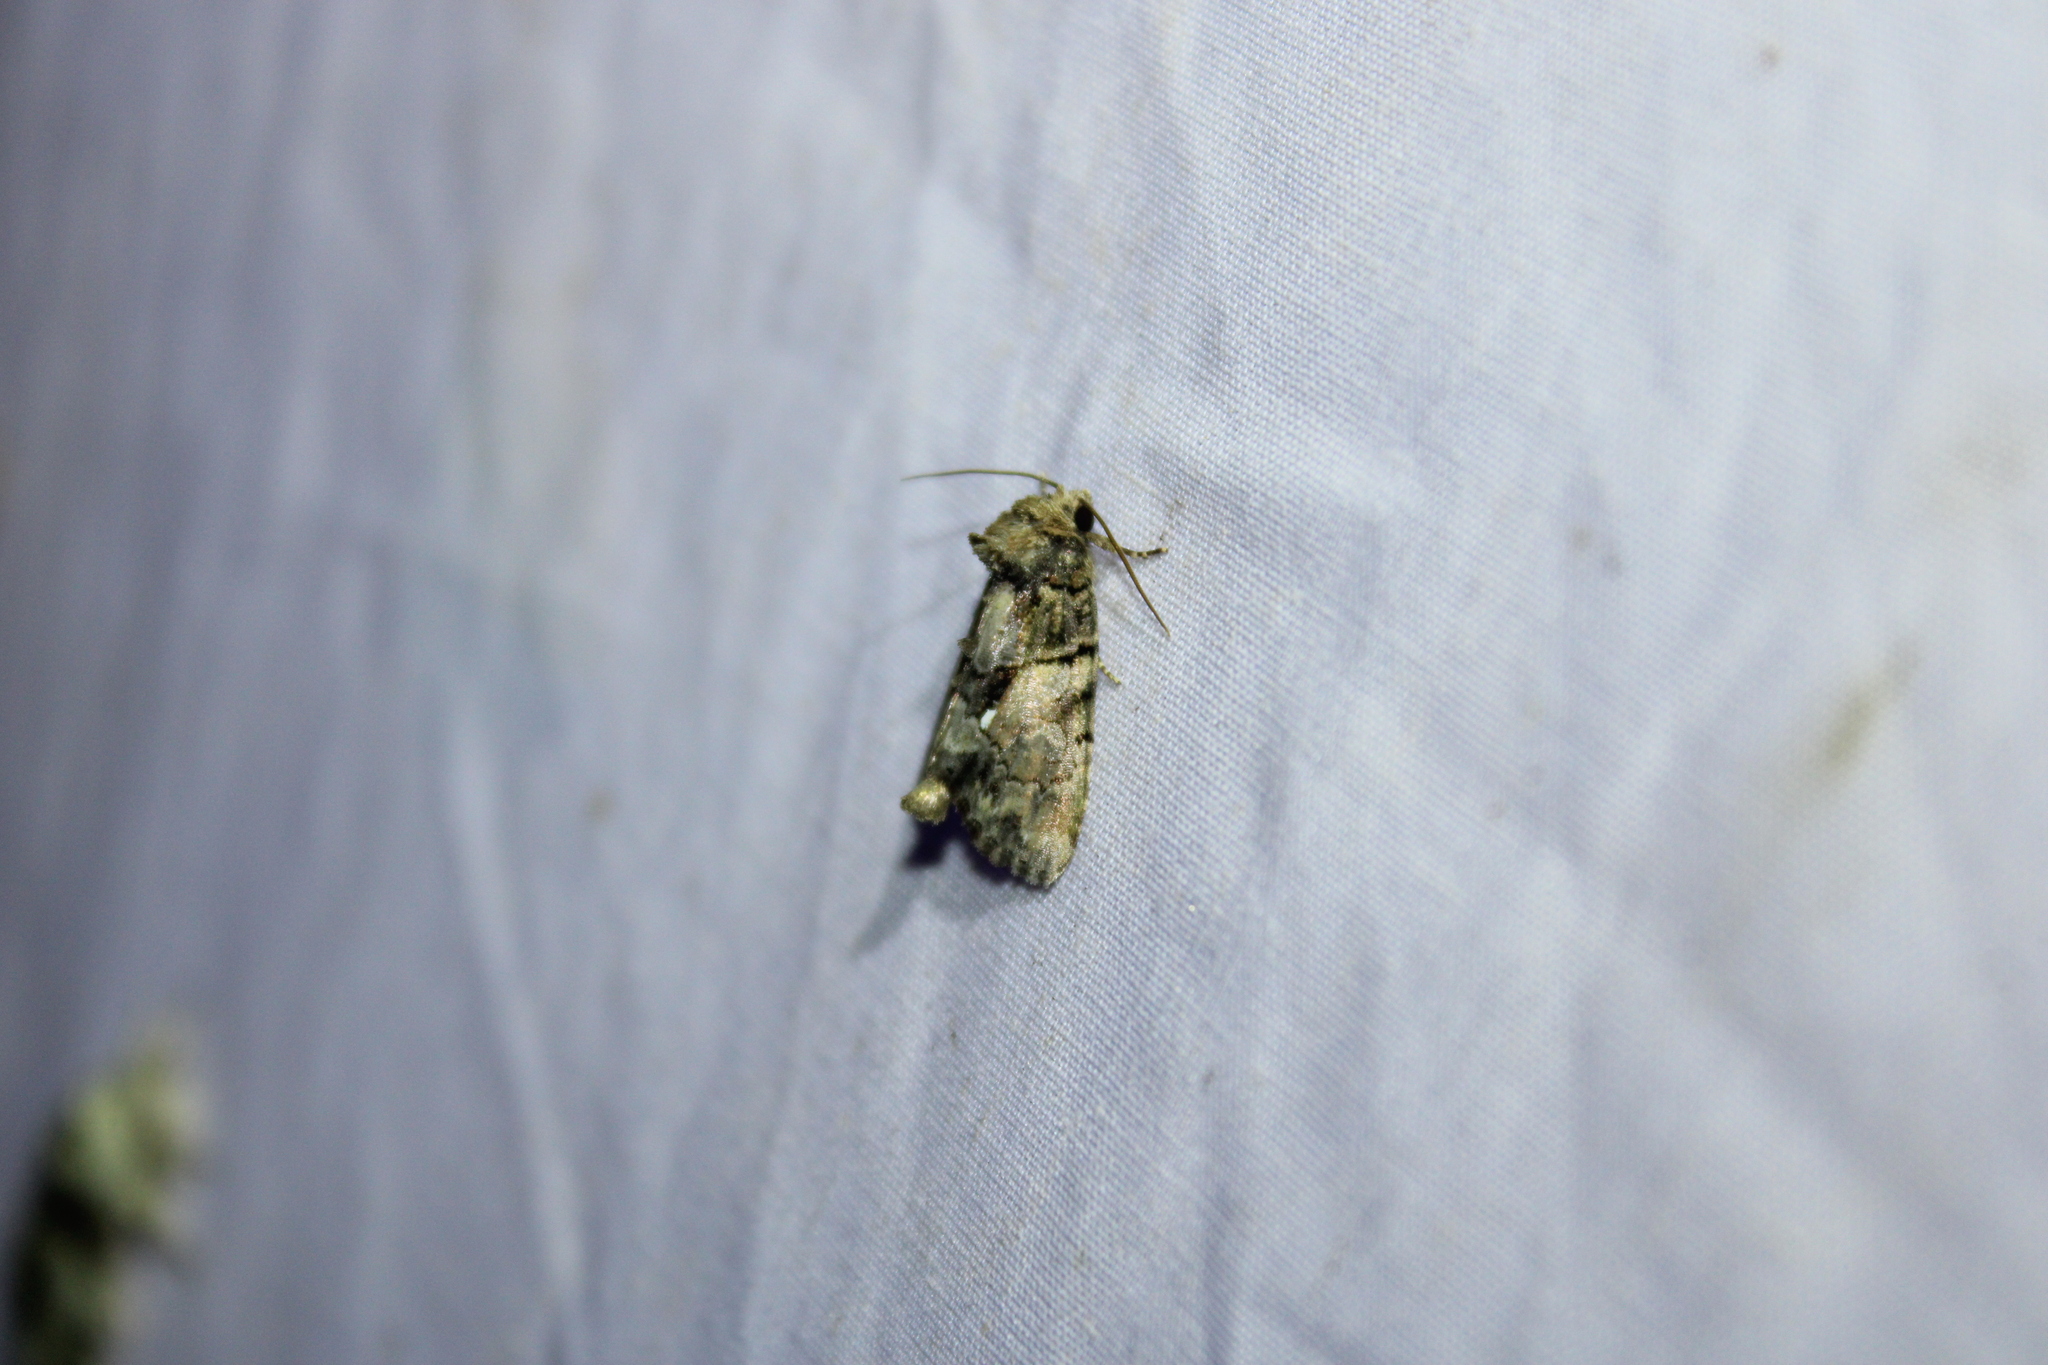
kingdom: Animalia
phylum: Arthropoda
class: Insecta
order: Lepidoptera
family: Noctuidae
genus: Chytonix
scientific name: Chytonix palliatricula
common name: Cloaked marvel
